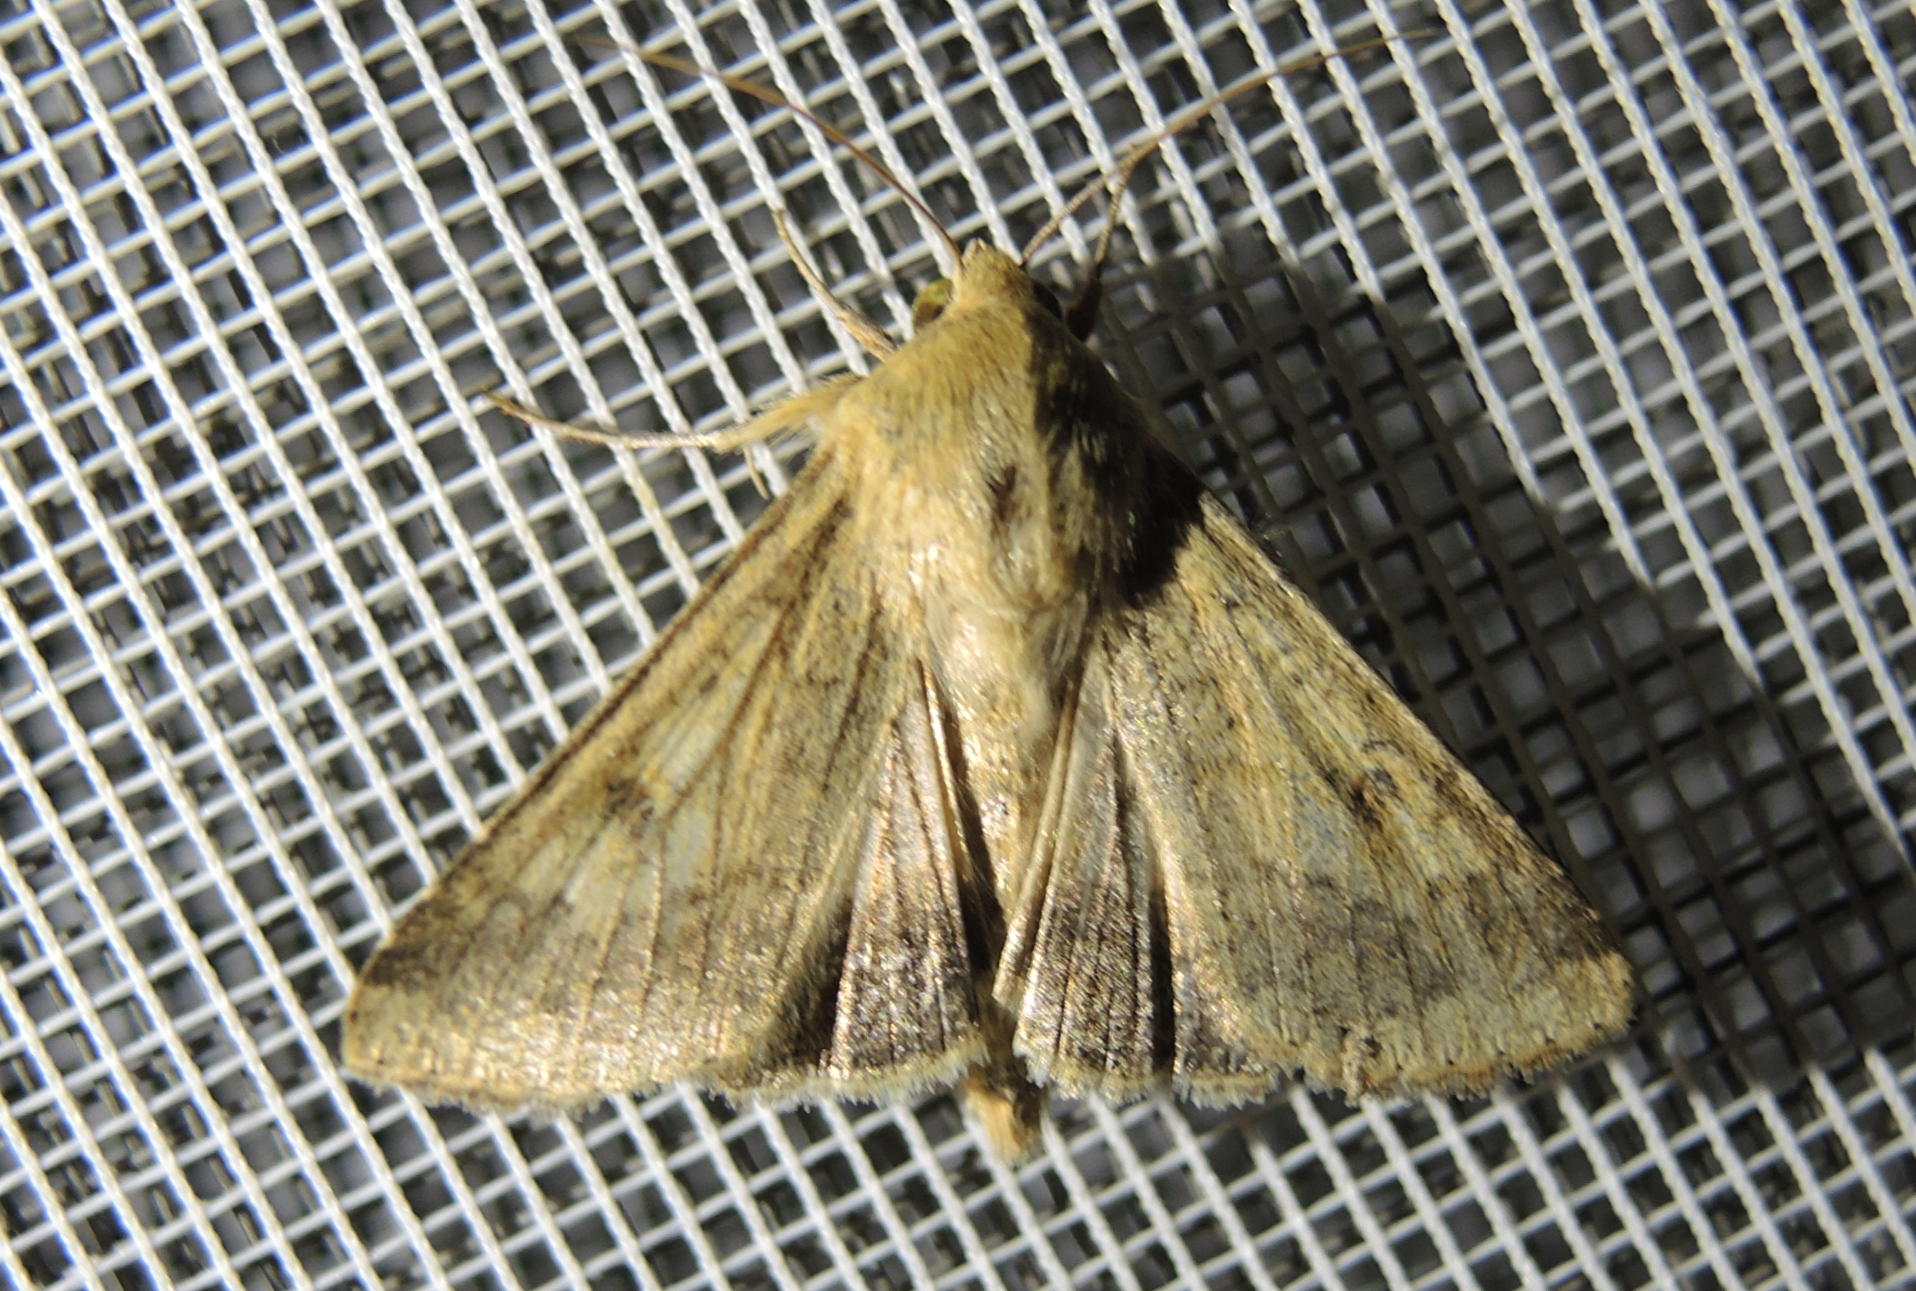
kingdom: Animalia
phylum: Arthropoda
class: Insecta
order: Lepidoptera
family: Noctuidae
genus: Helicoverpa
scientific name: Helicoverpa armigera
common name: Cotton bollworm
